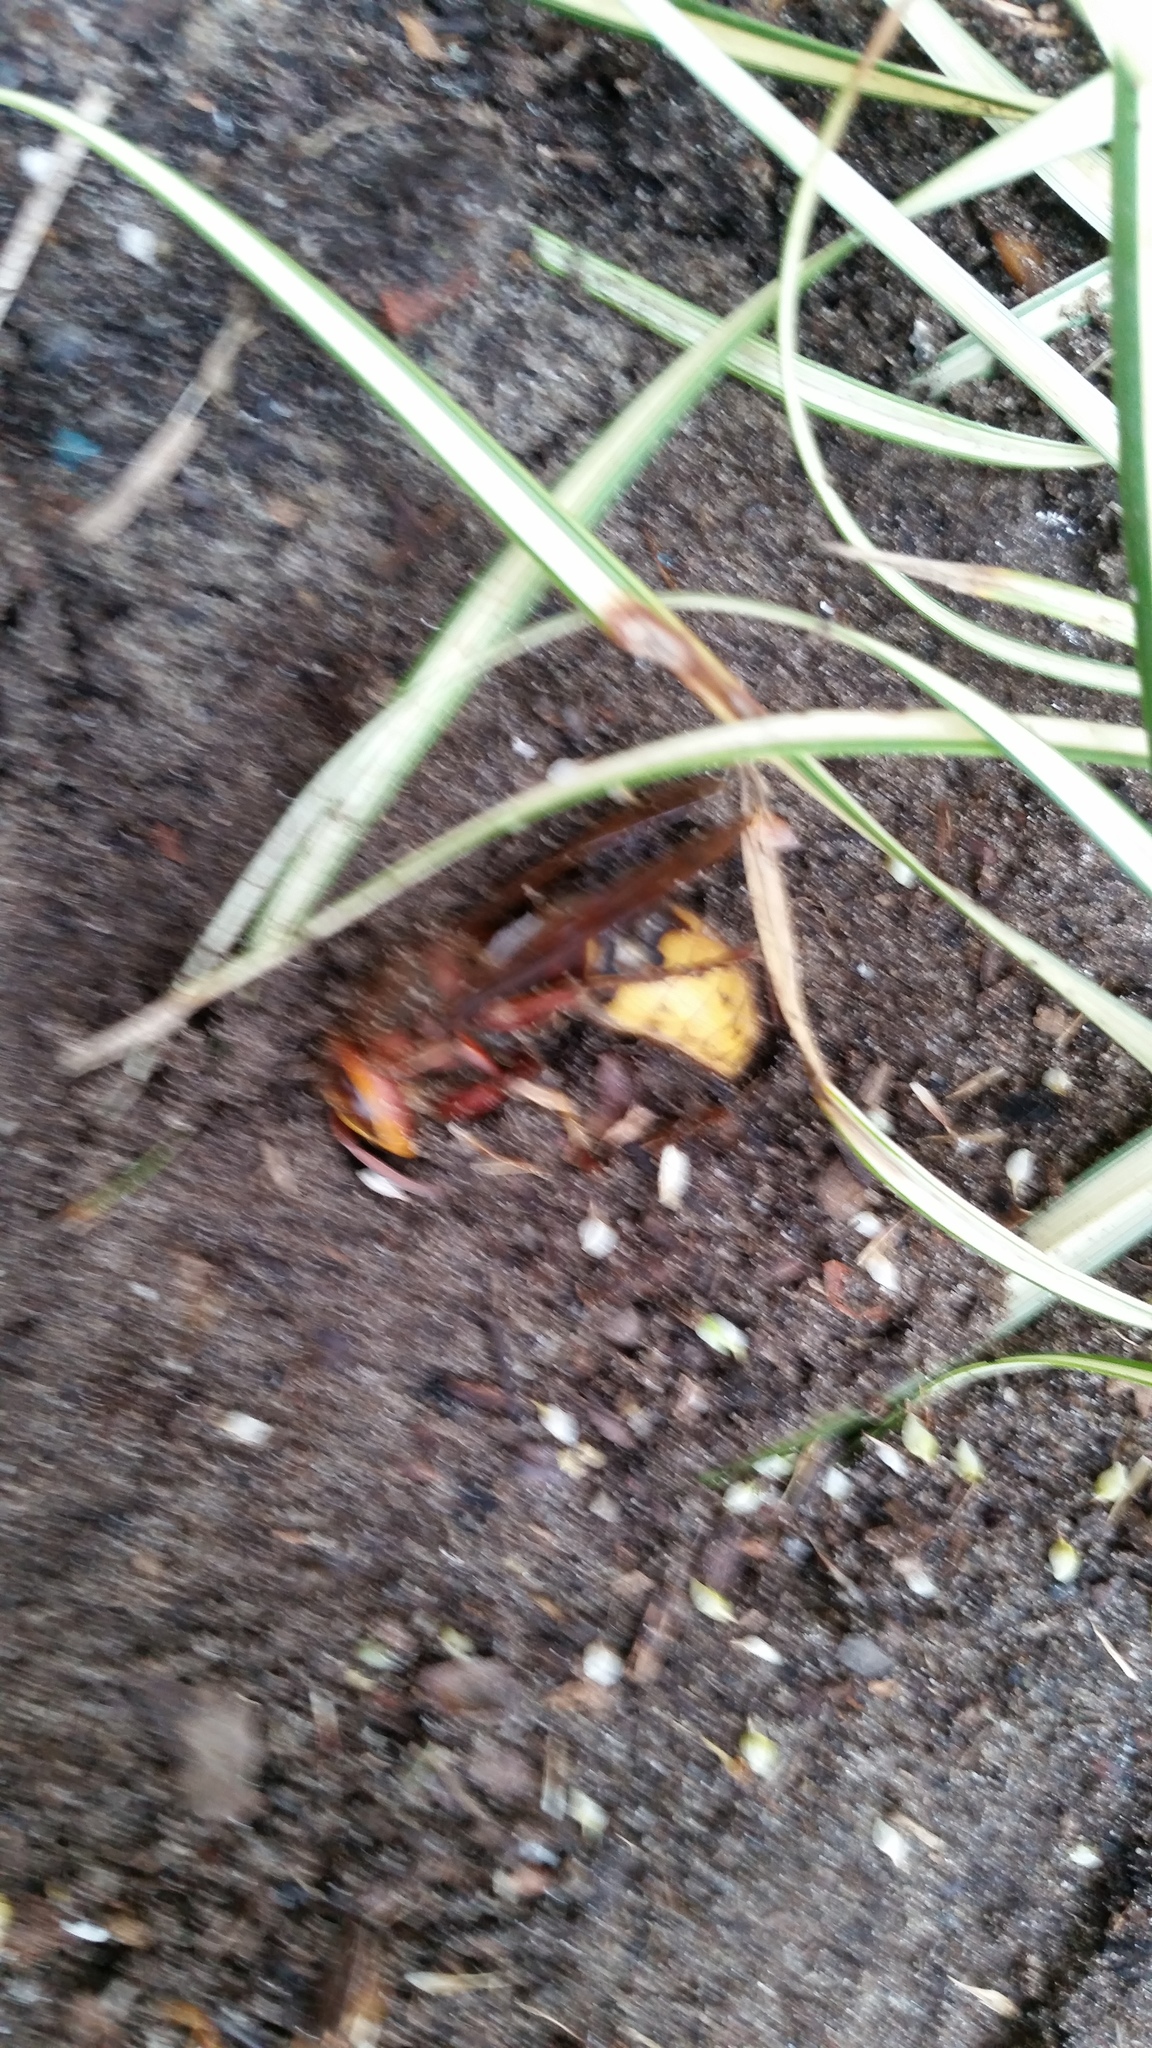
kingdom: Animalia
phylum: Arthropoda
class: Insecta
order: Hymenoptera
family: Vespidae
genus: Vespa
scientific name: Vespa crabro
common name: Hornet
